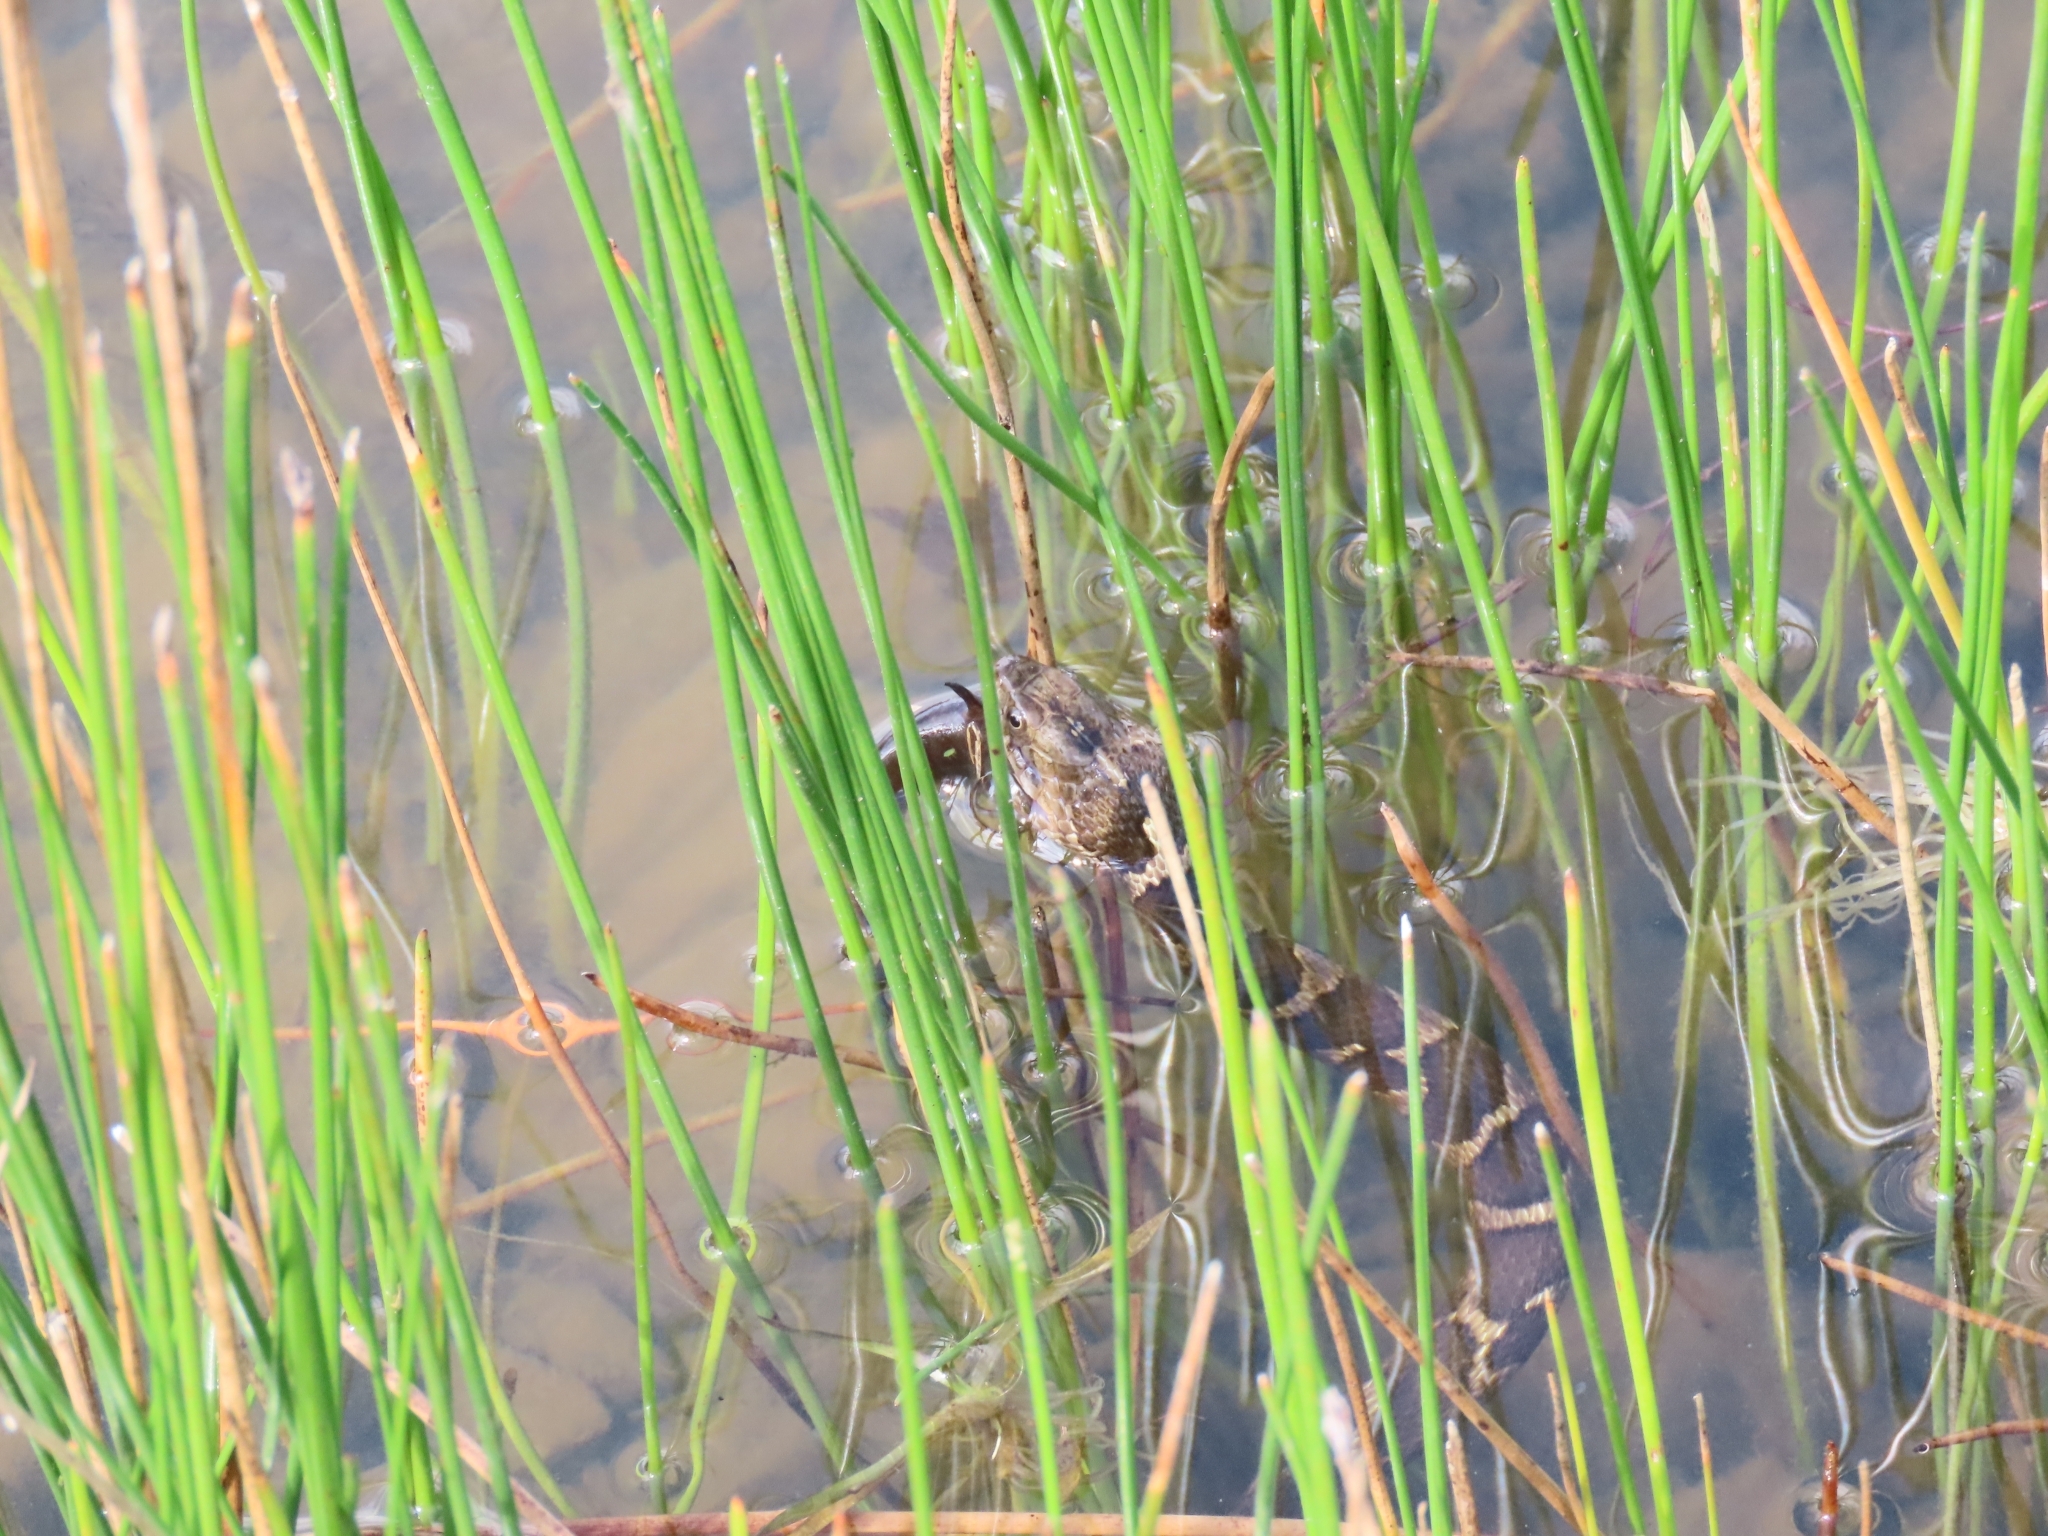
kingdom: Animalia
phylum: Chordata
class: Squamata
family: Colubridae
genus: Nerodia
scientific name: Nerodia sipedon
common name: Northern water snake
